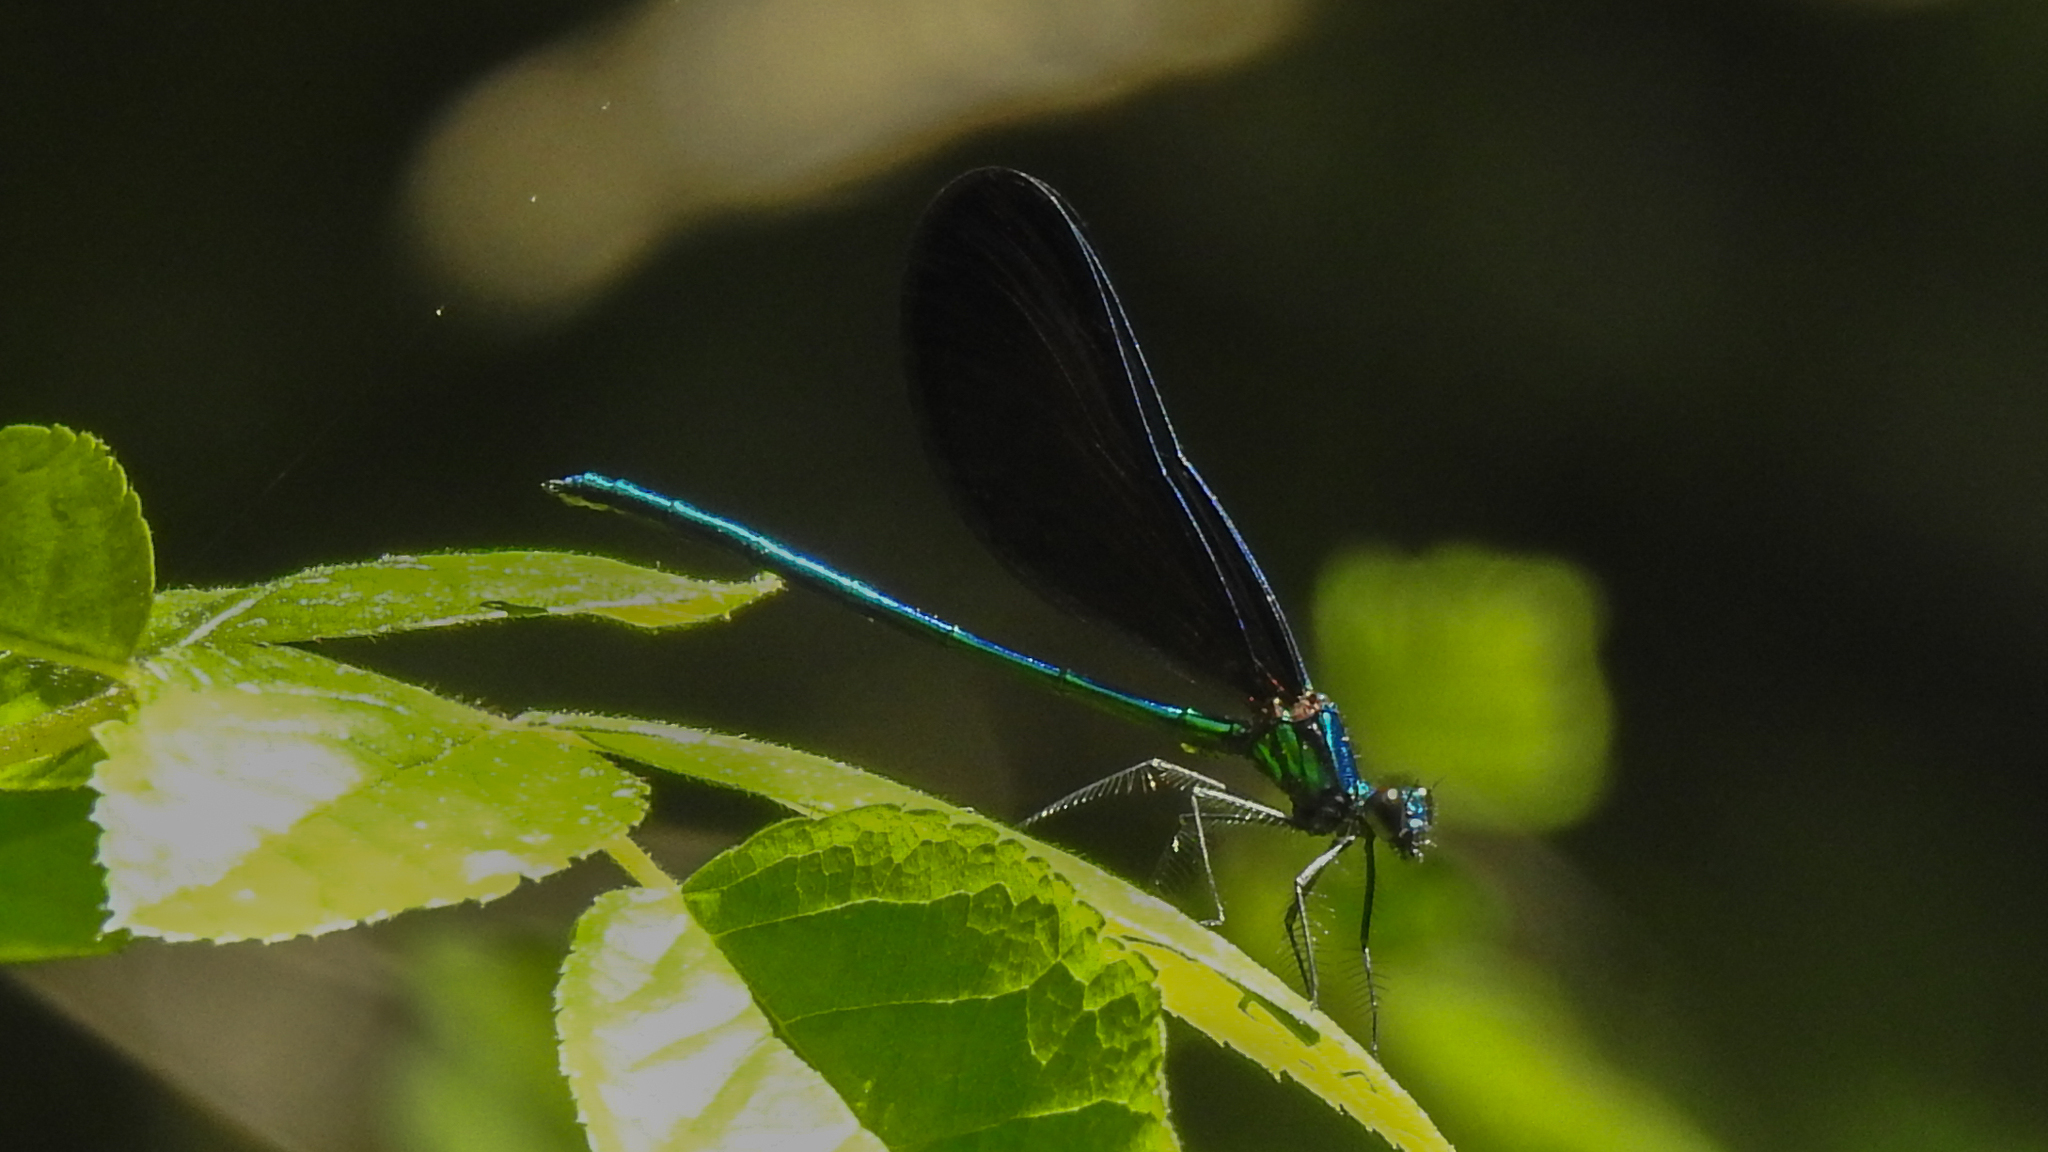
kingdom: Animalia
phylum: Arthropoda
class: Insecta
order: Odonata
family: Calopterygidae
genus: Calopteryx
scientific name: Calopteryx maculata
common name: Ebony jewelwing
